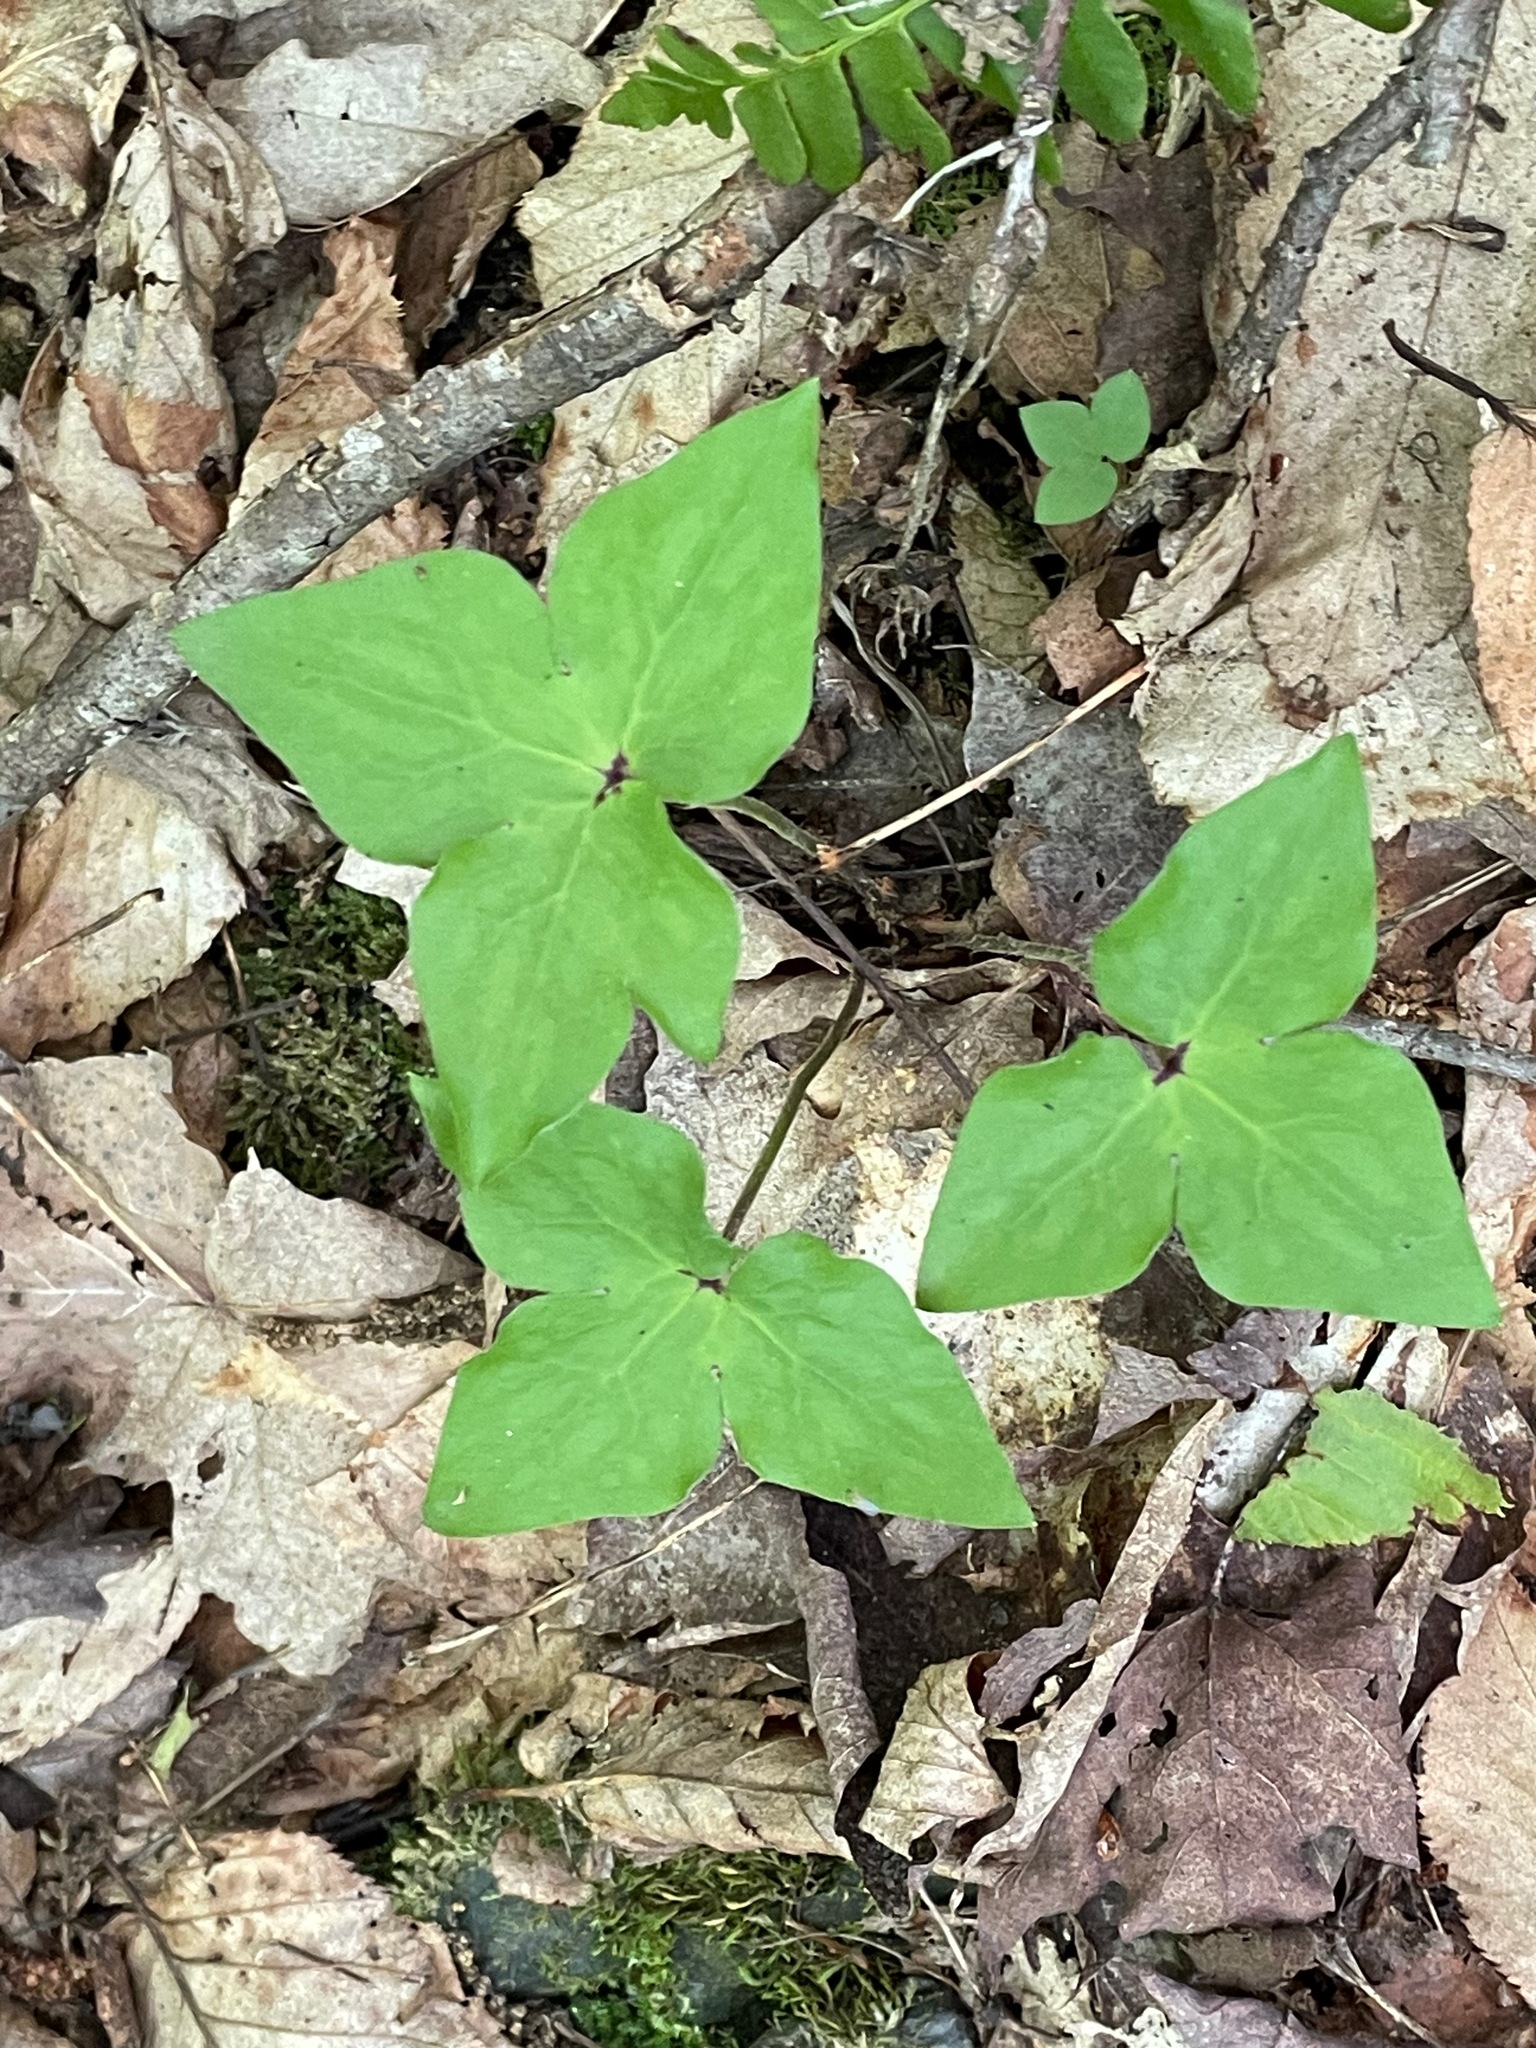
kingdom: Plantae
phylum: Tracheophyta
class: Magnoliopsida
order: Ranunculales
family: Ranunculaceae
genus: Hepatica
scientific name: Hepatica acutiloba
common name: Sharp-lobed hepatica
